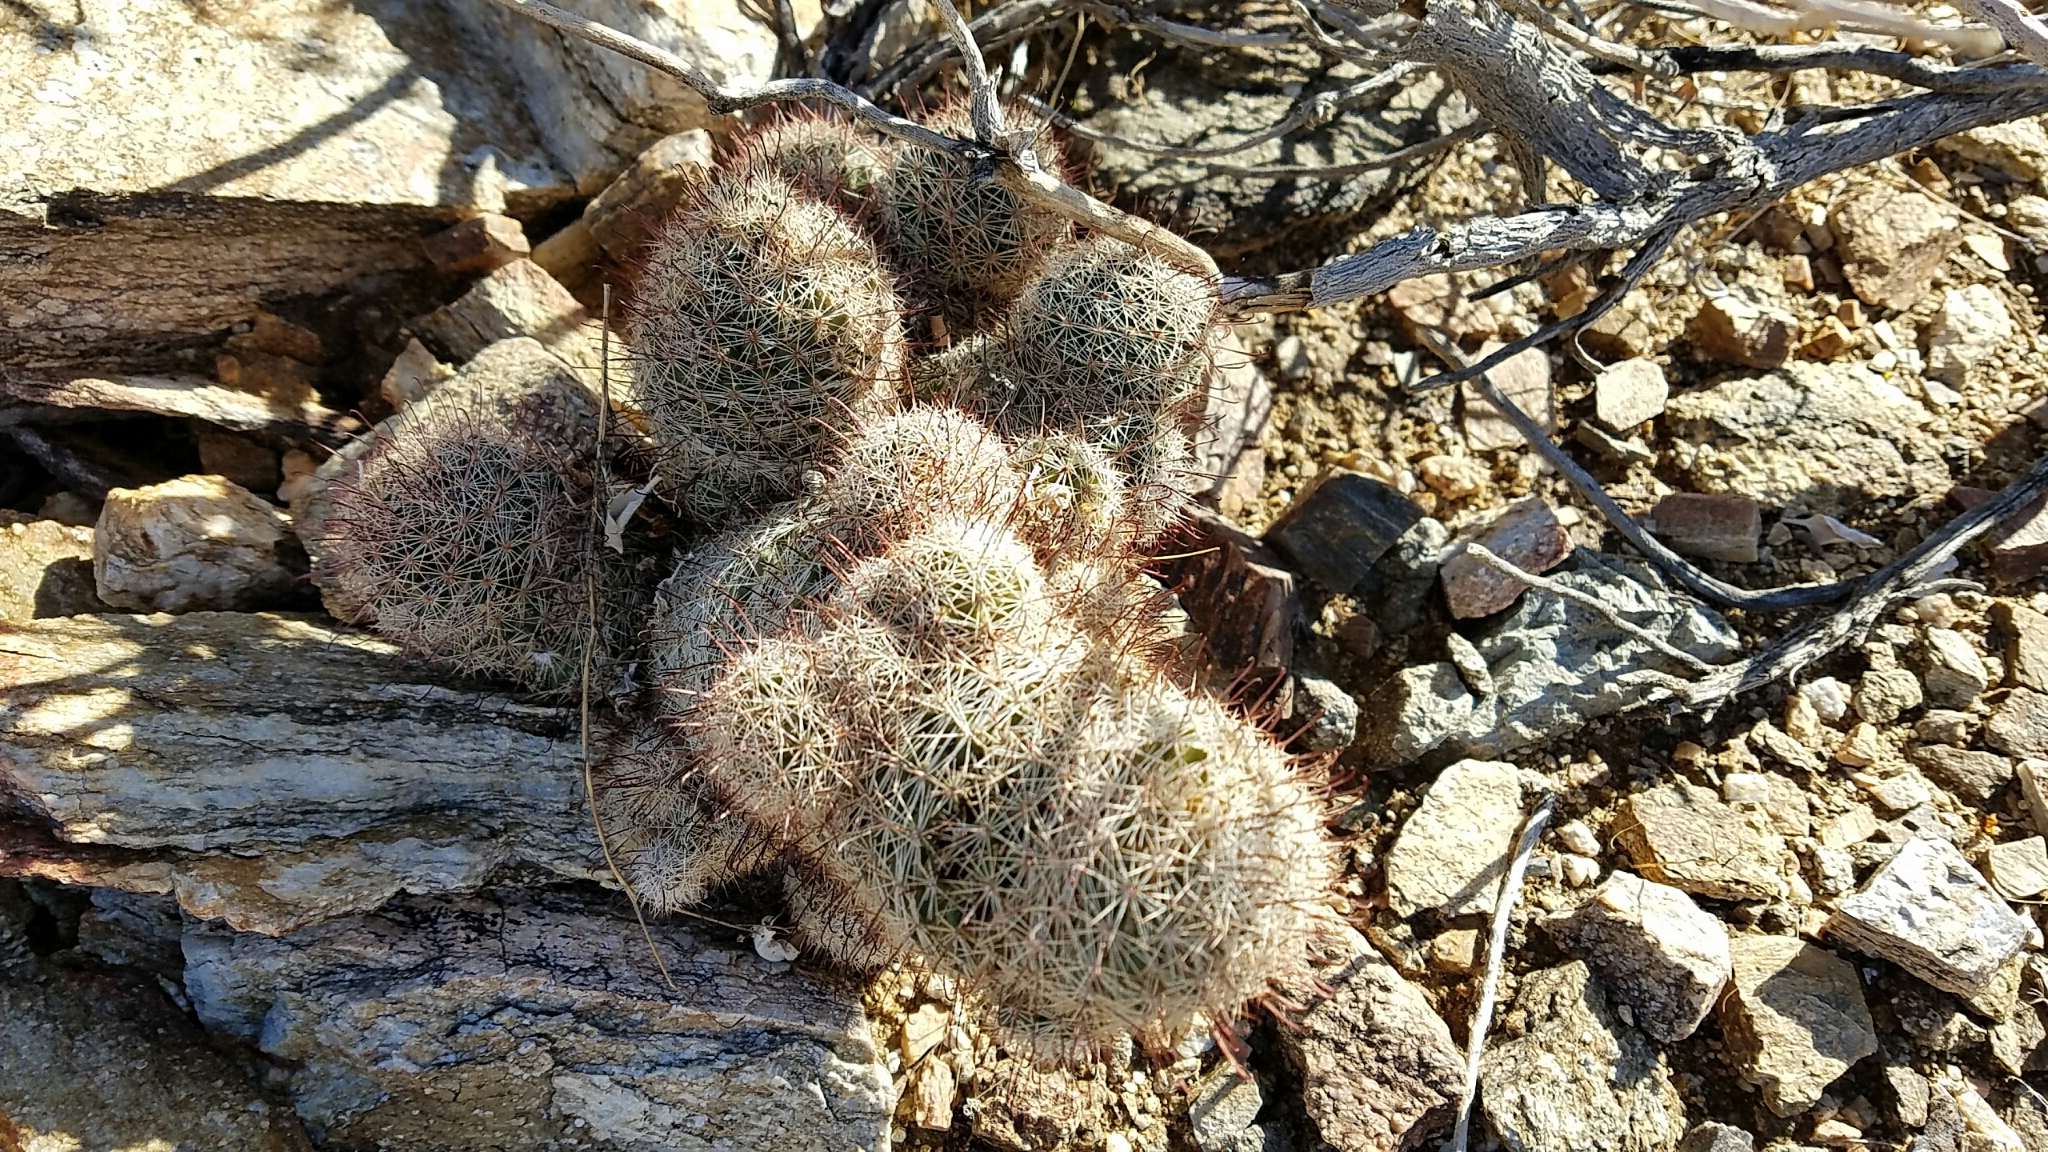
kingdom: Plantae
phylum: Tracheophyta
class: Magnoliopsida
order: Caryophyllales
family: Cactaceae
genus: Cochemiea
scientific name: Cochemiea dioica
